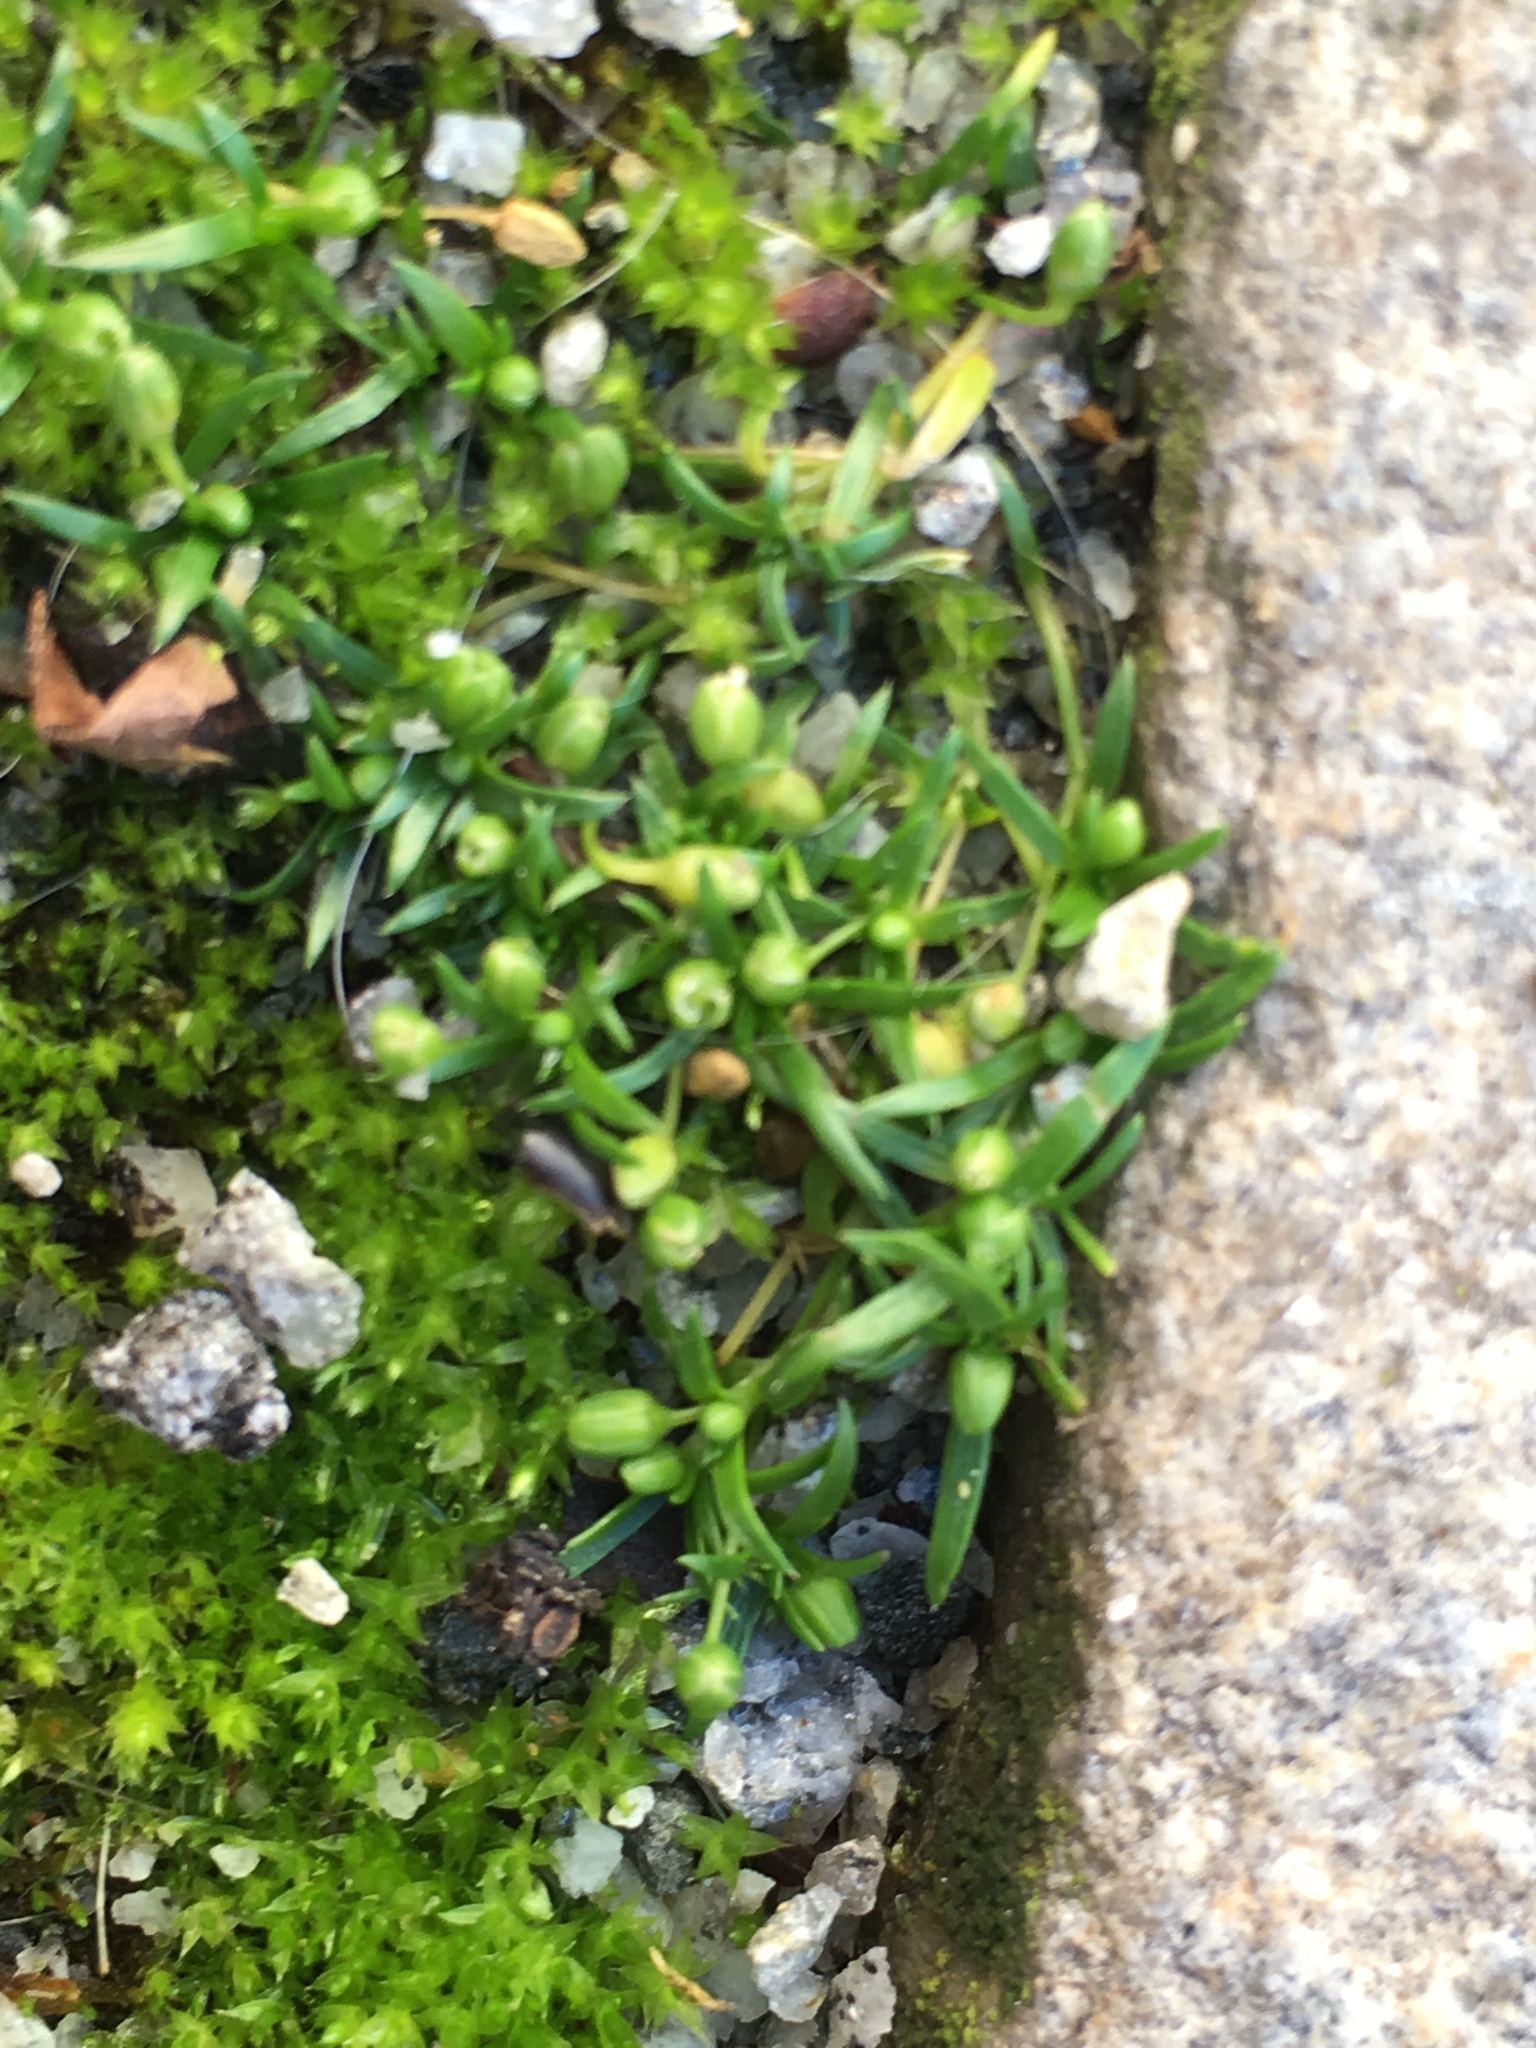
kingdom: Plantae
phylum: Tracheophyta
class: Magnoliopsida
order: Caryophyllales
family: Caryophyllaceae
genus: Sagina
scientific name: Sagina procumbens
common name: Procumbent pearlwort
